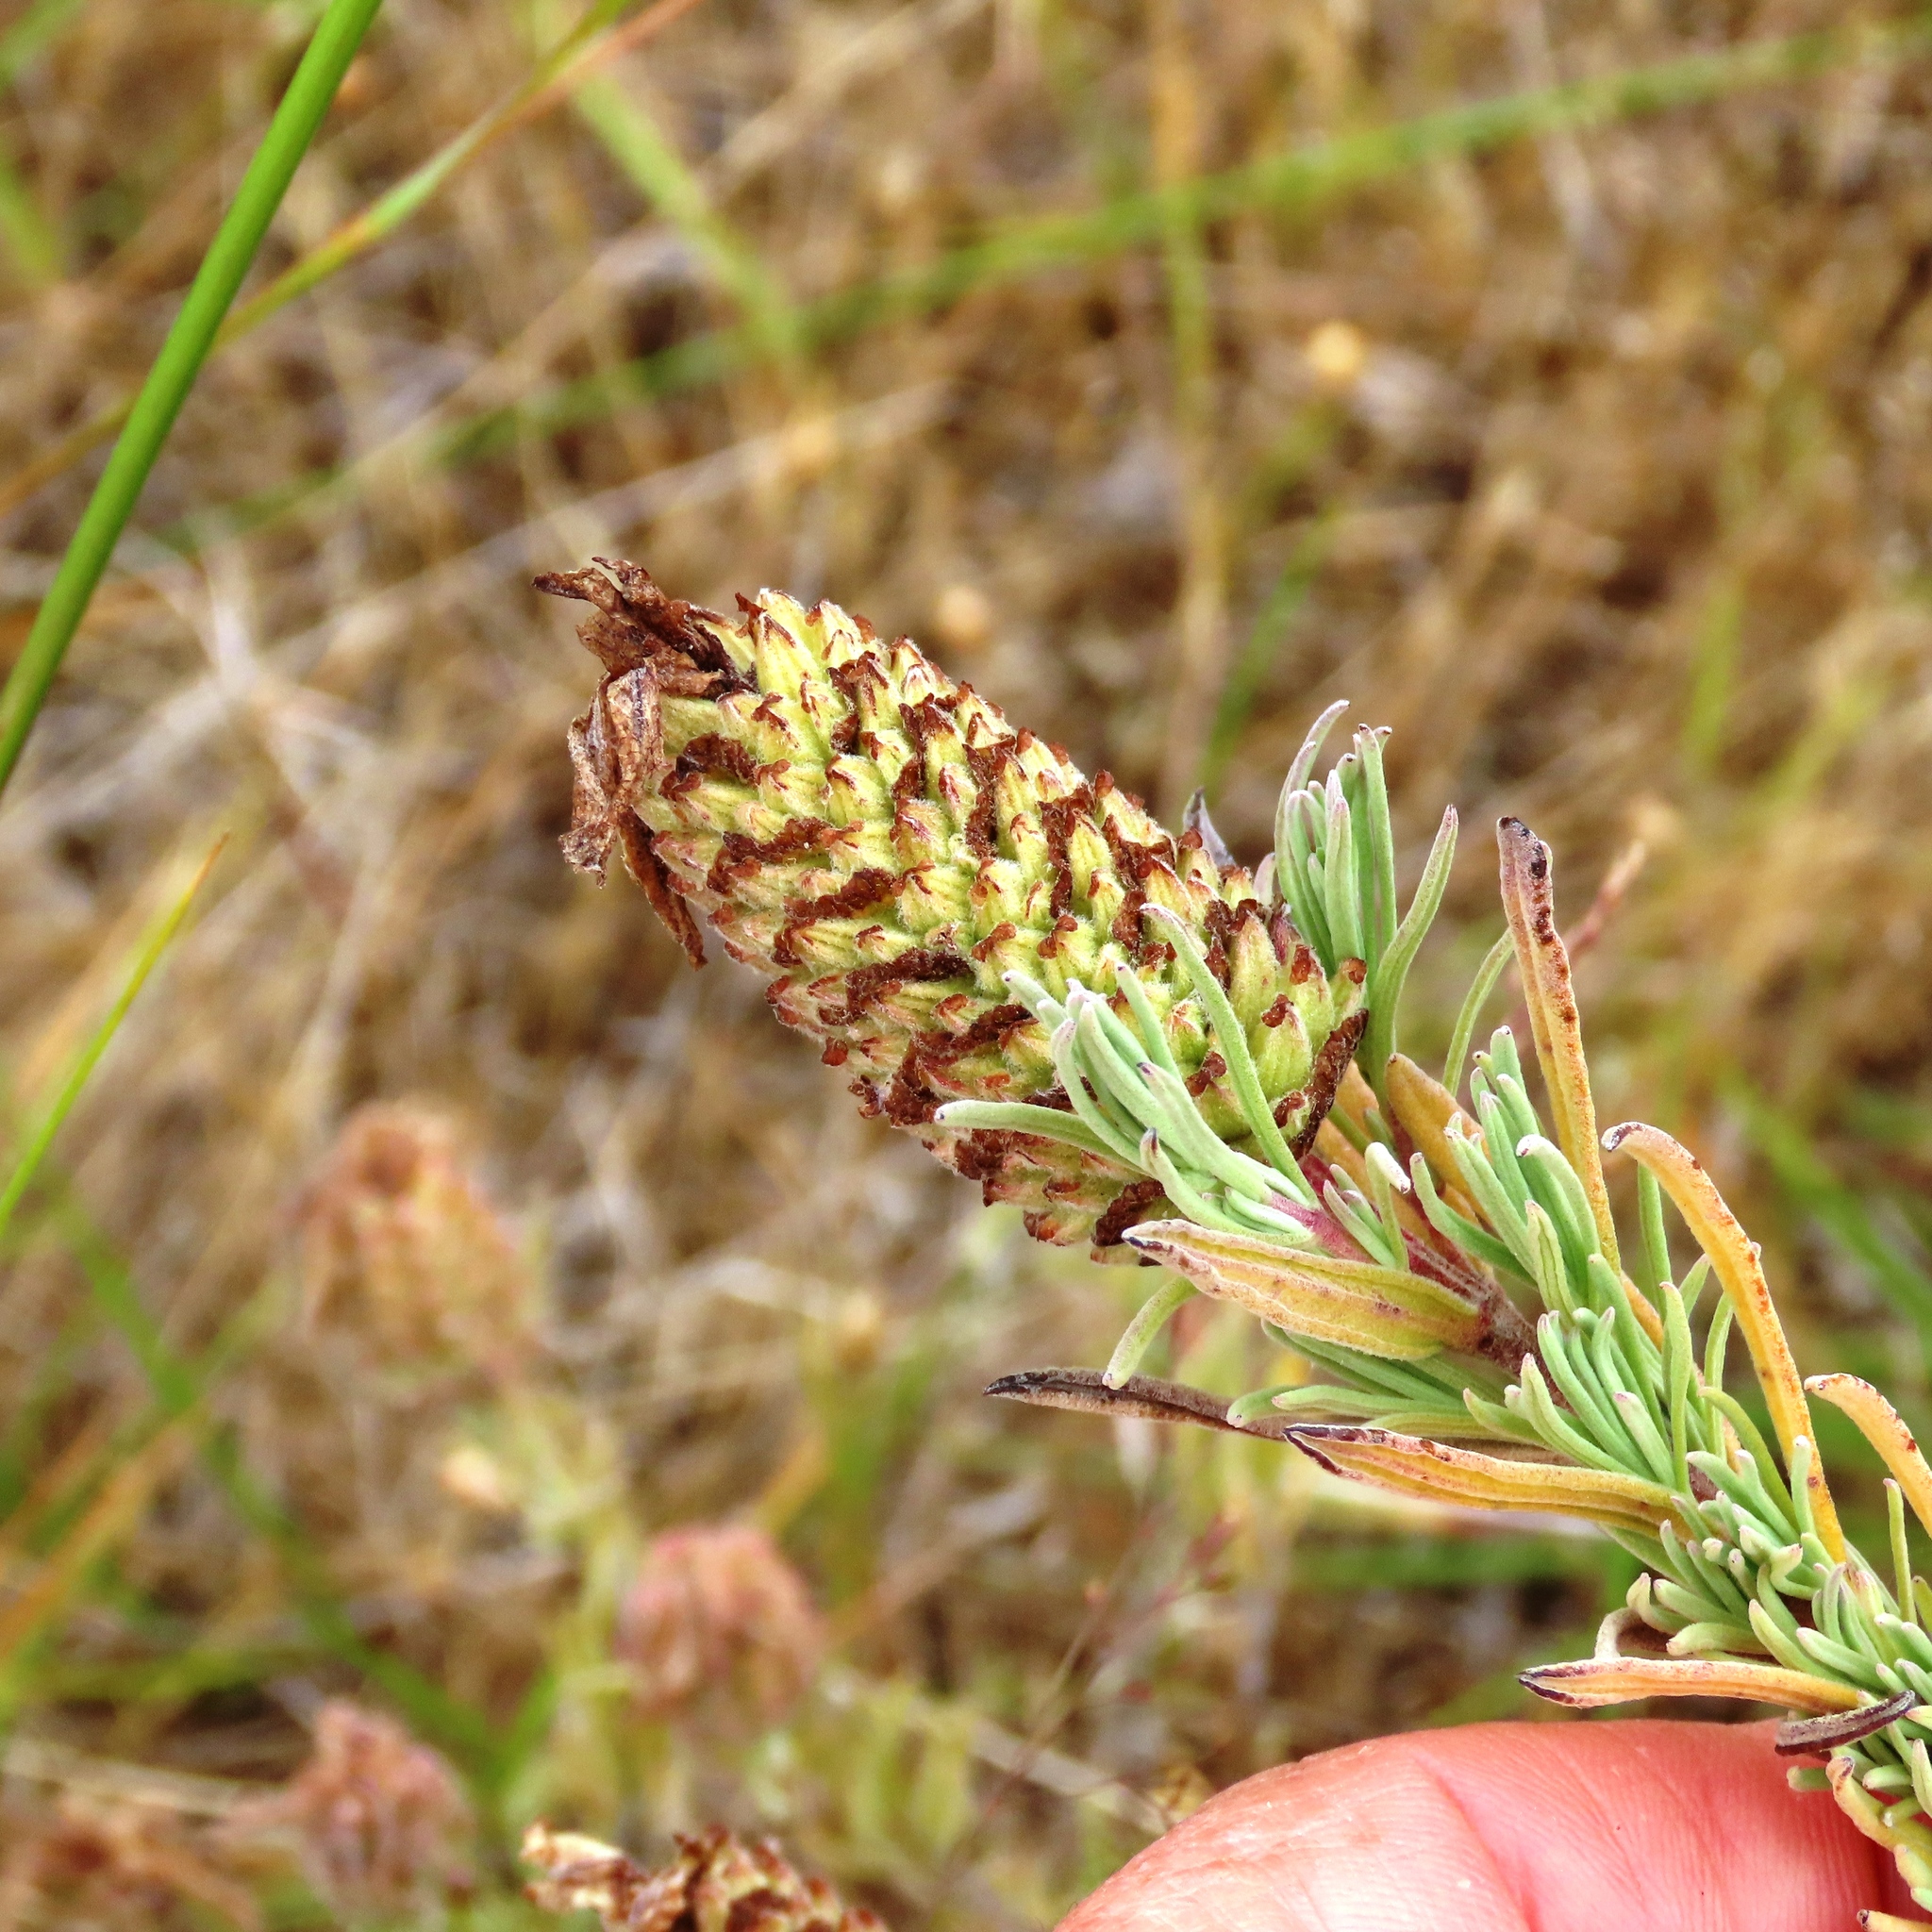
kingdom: Plantae
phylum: Tracheophyta
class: Magnoliopsida
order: Lamiales
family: Lamiaceae
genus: Lavandula
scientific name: Lavandula stoechas
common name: French lavender
